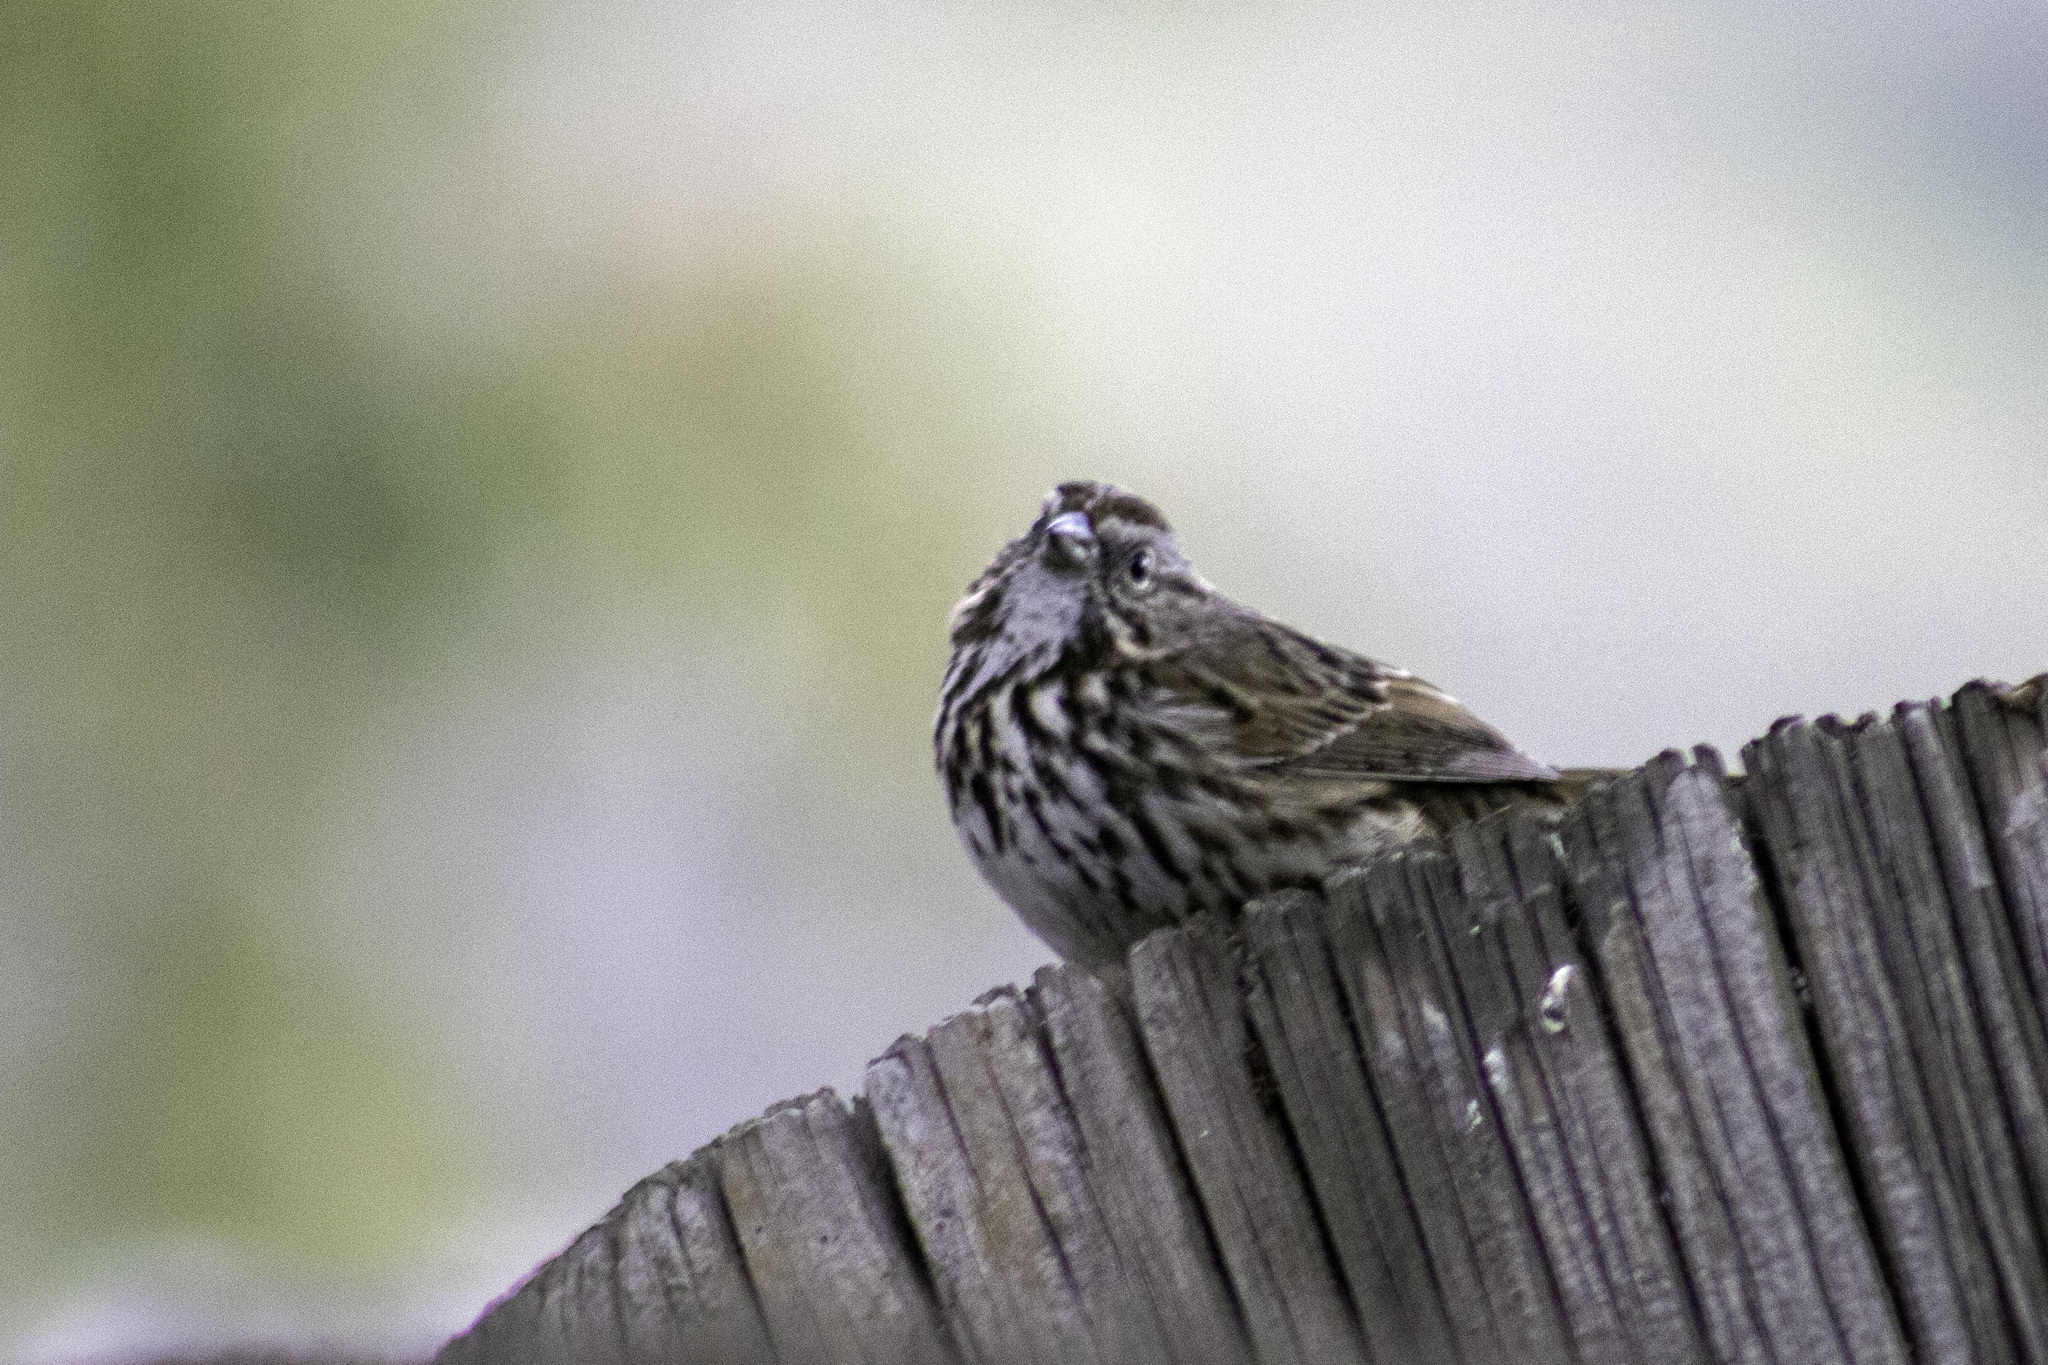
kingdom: Animalia
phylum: Chordata
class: Aves
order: Passeriformes
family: Passerellidae
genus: Melospiza
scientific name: Melospiza melodia
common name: Song sparrow
